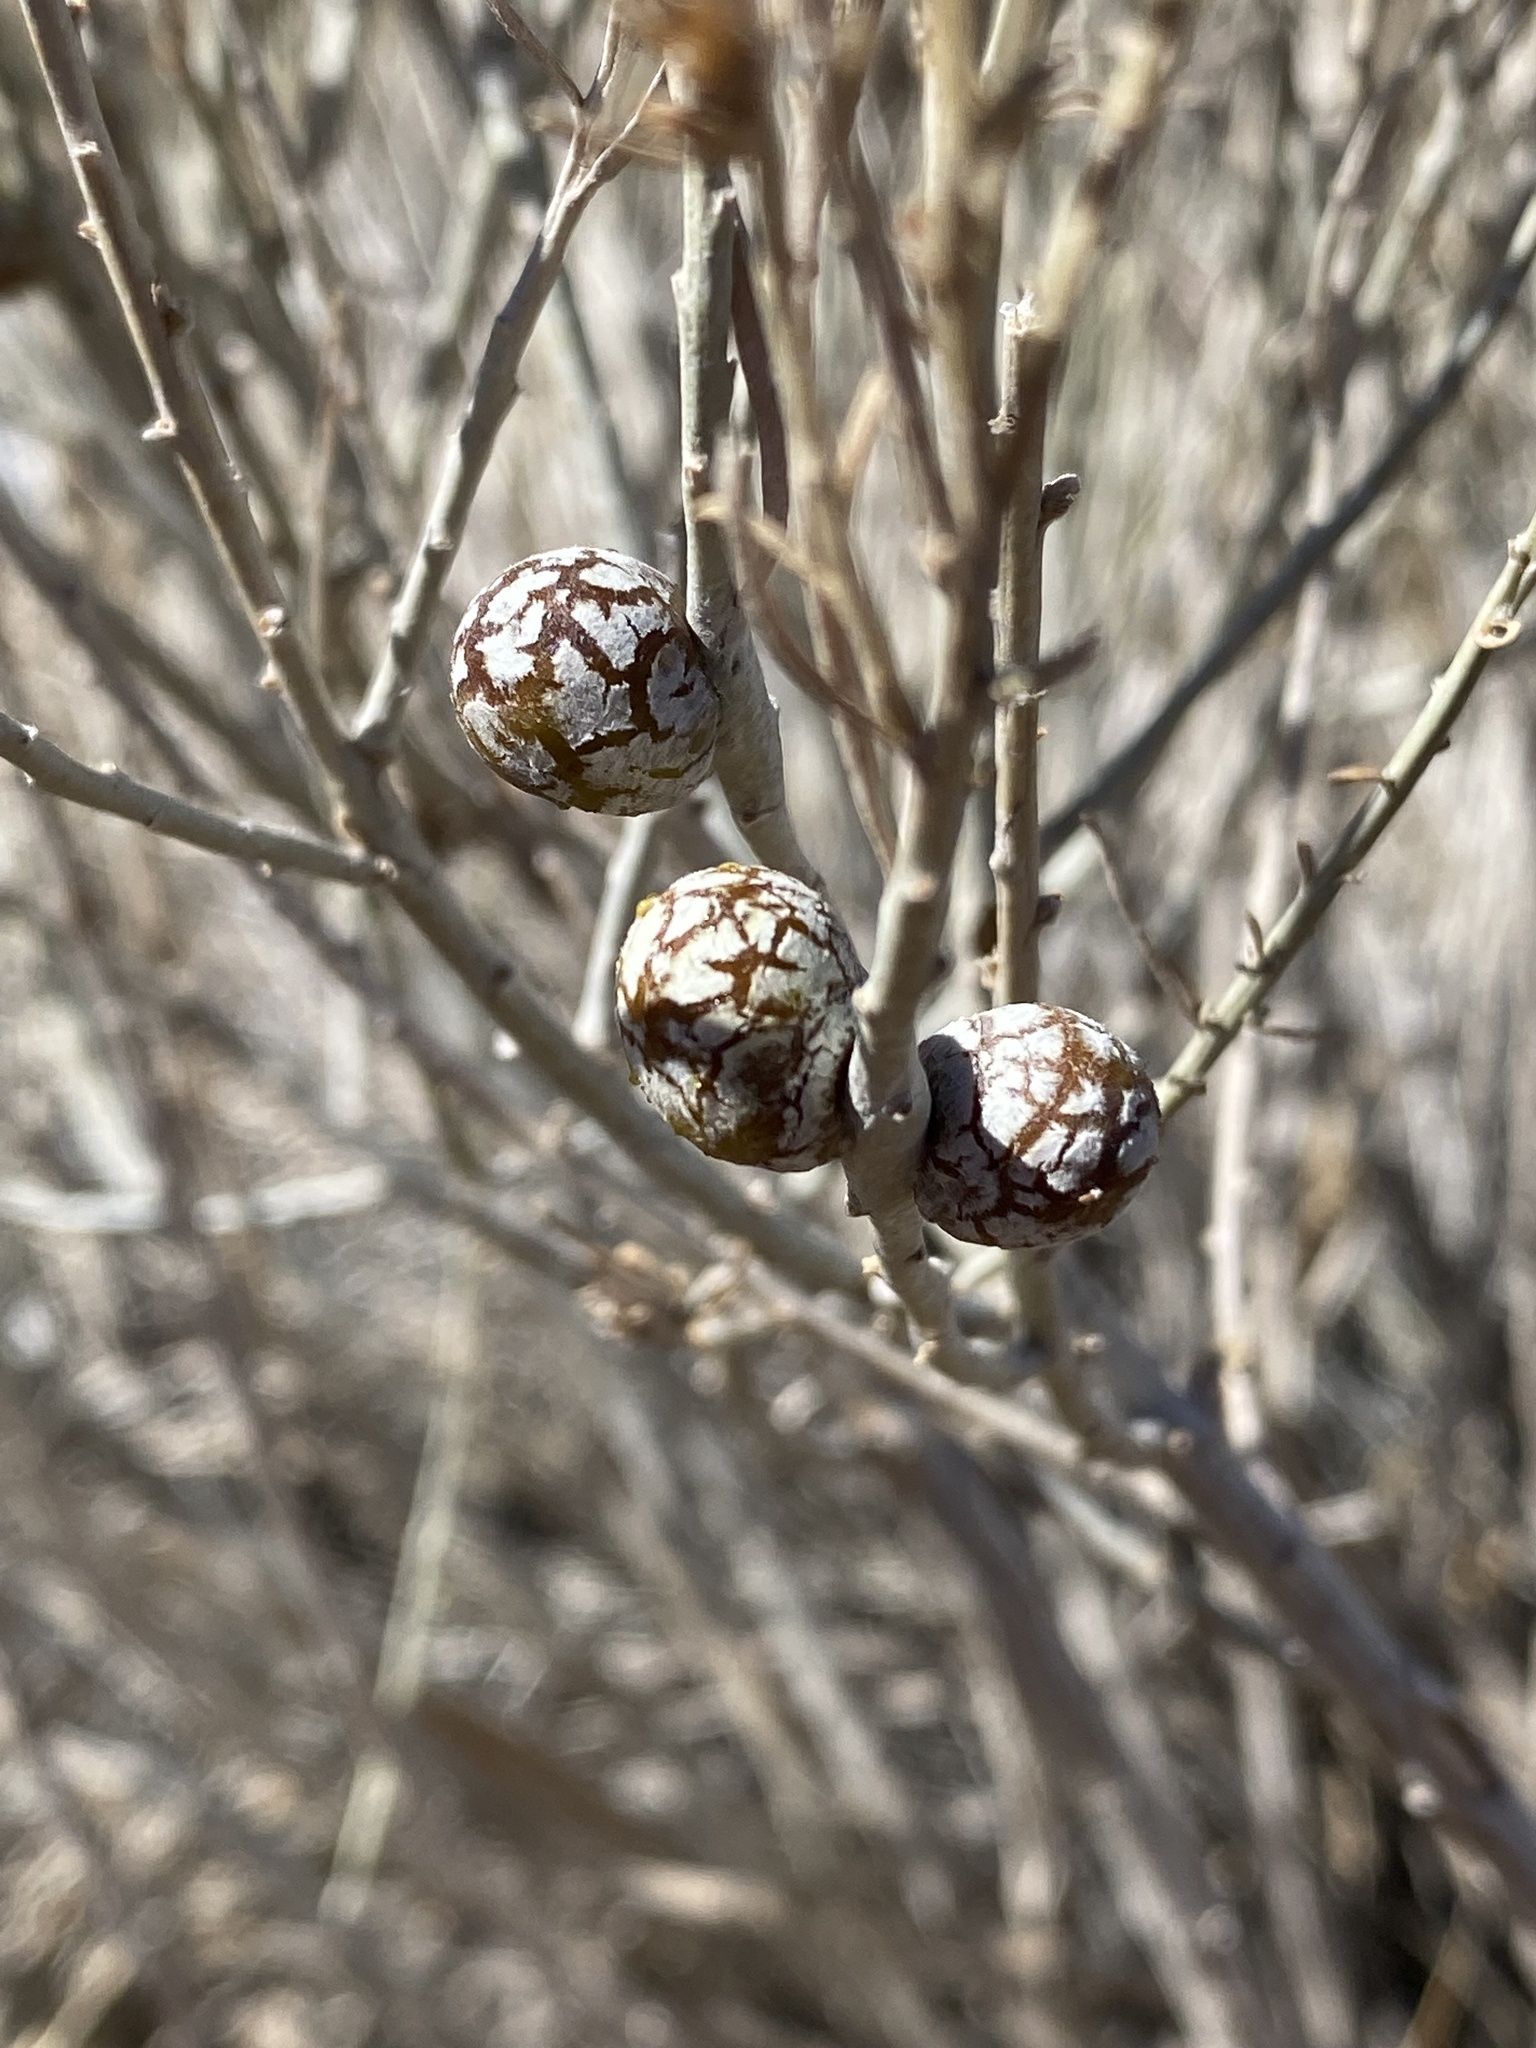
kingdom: Animalia
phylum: Arthropoda
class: Insecta
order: Diptera
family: Tephritidae
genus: Aciurina
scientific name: Aciurina trixa
